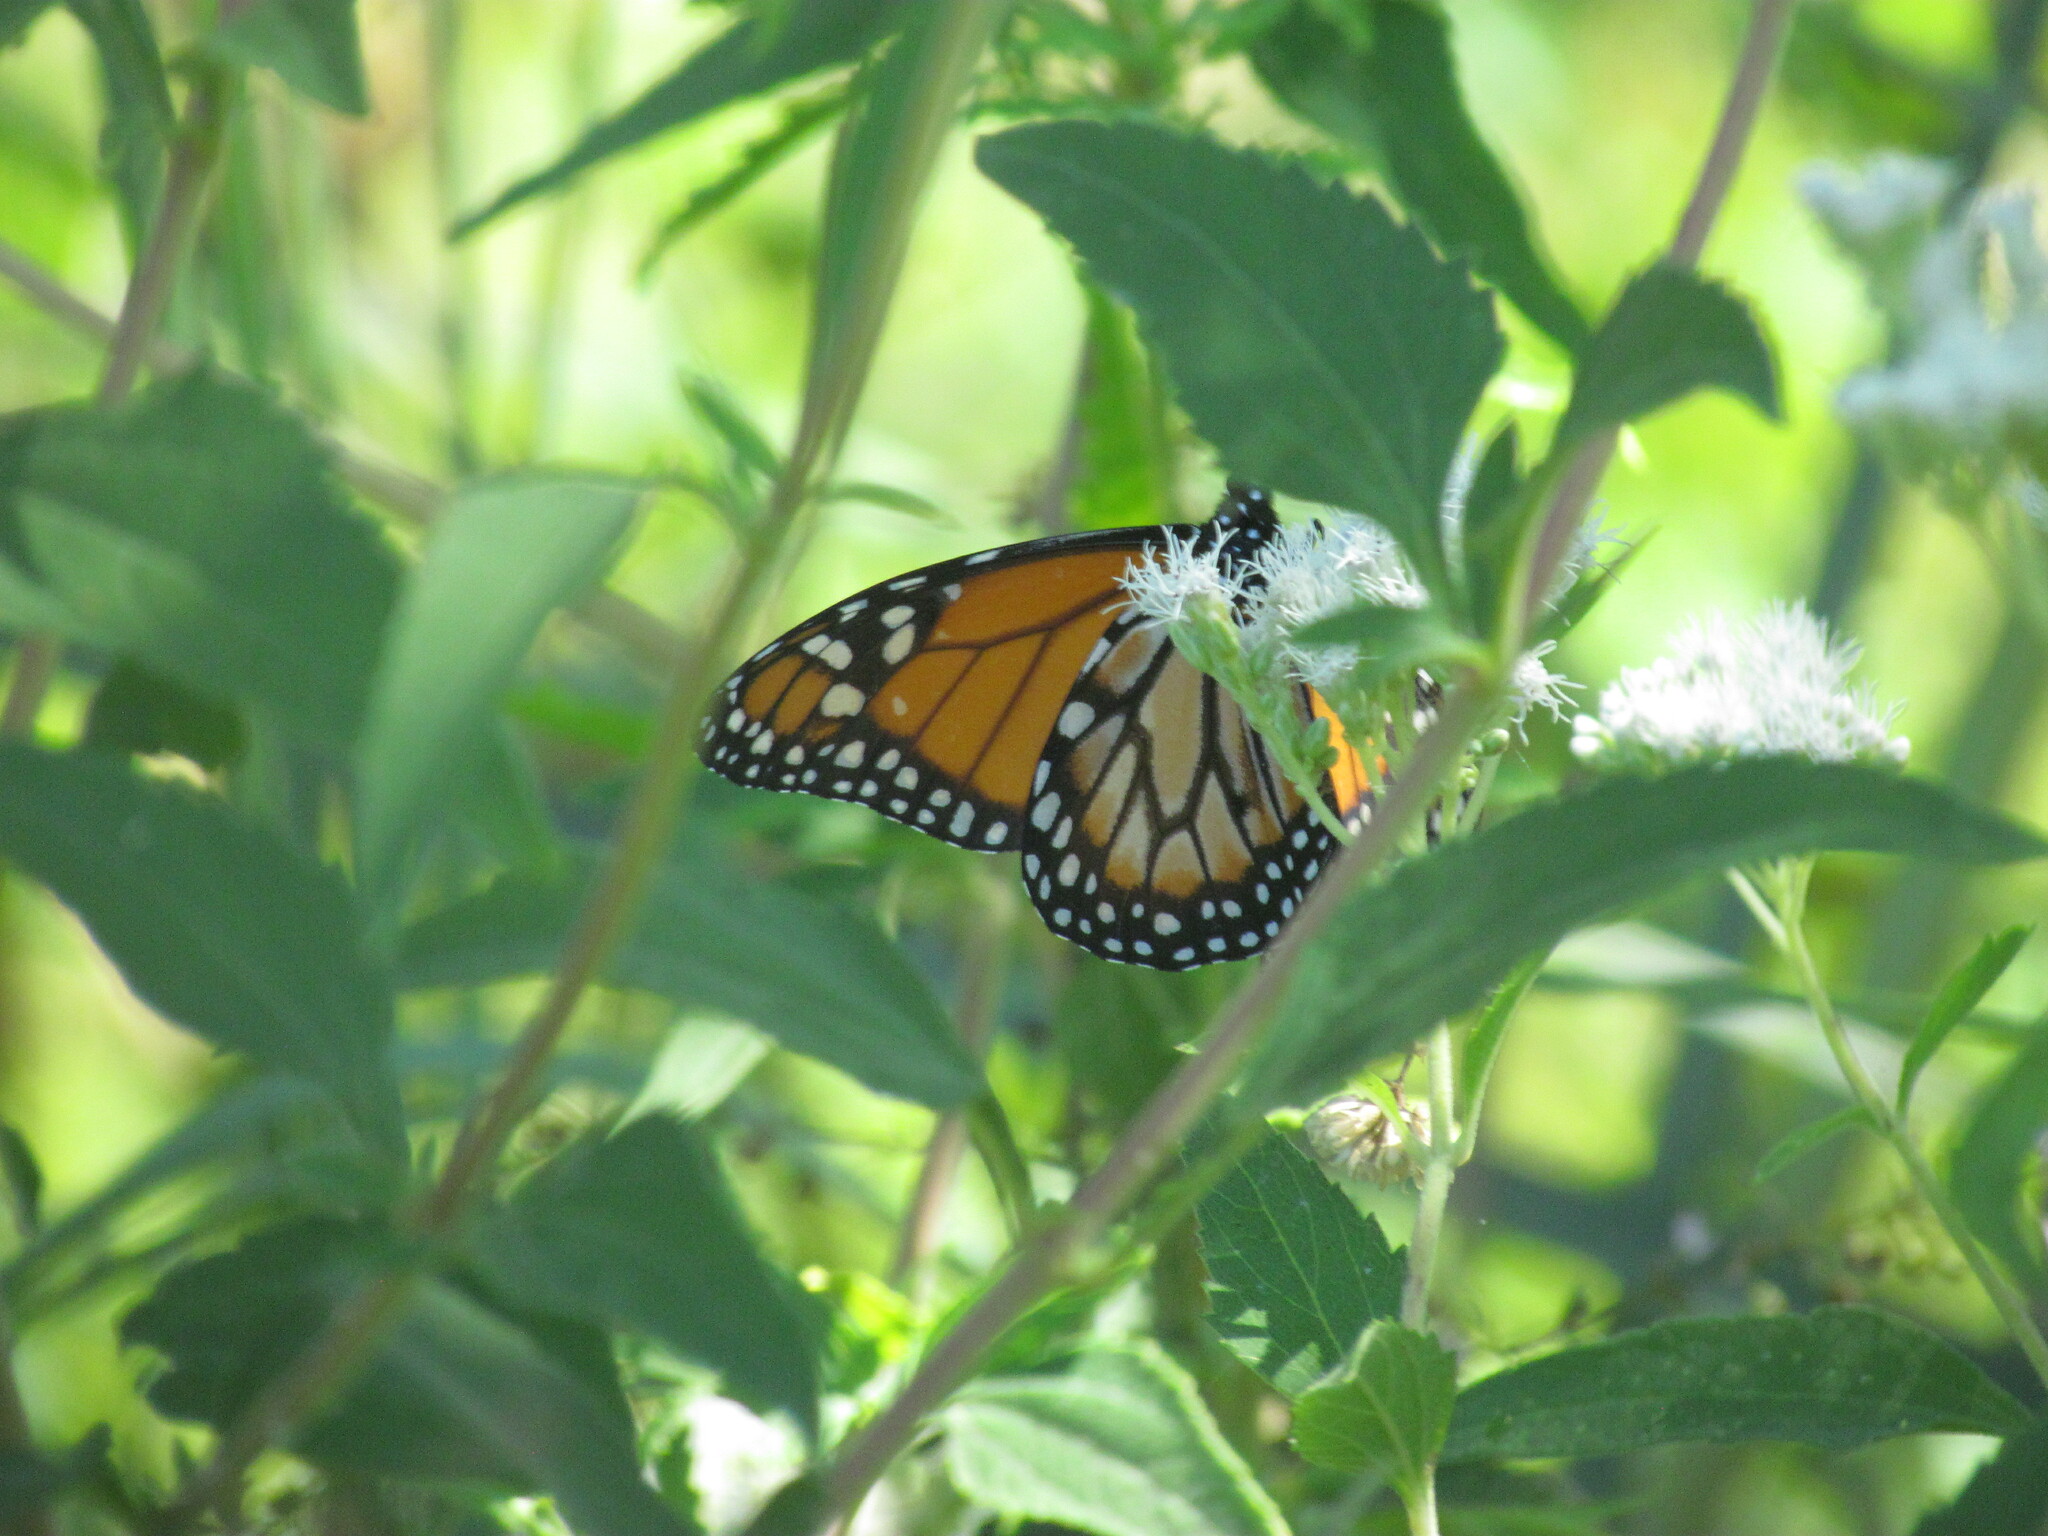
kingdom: Animalia
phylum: Arthropoda
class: Insecta
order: Lepidoptera
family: Nymphalidae
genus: Danaus
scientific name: Danaus erippus
